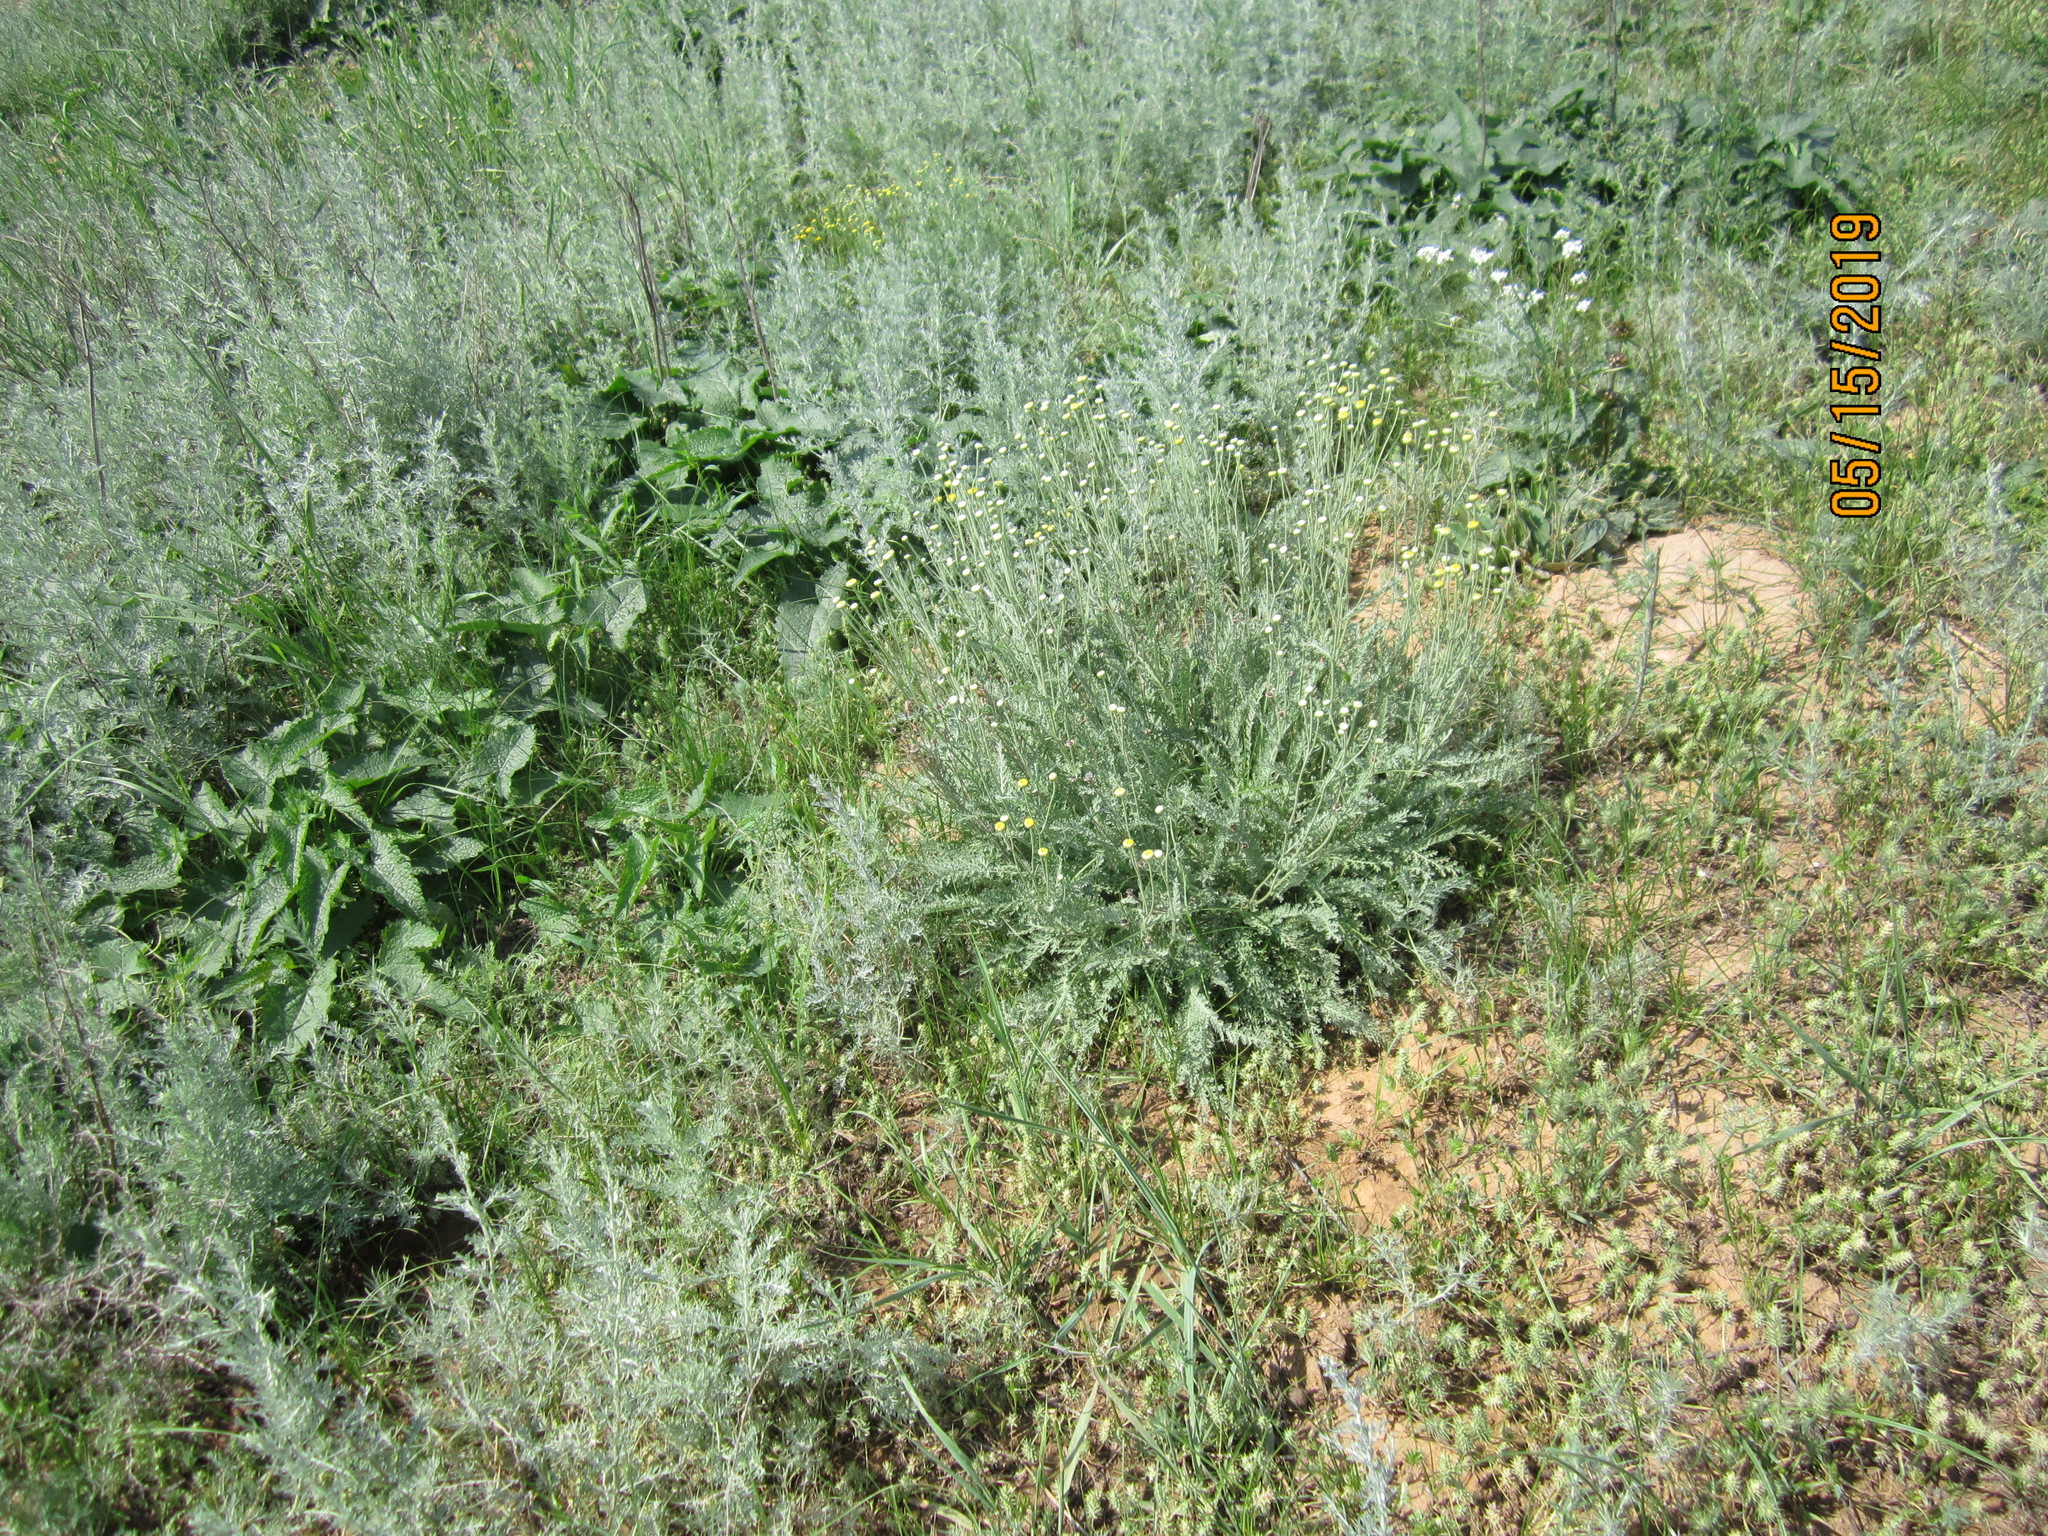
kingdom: Plantae
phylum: Tracheophyta
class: Magnoliopsida
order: Asterales
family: Asteraceae
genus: Tanacetum
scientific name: Tanacetum achilleifolium
